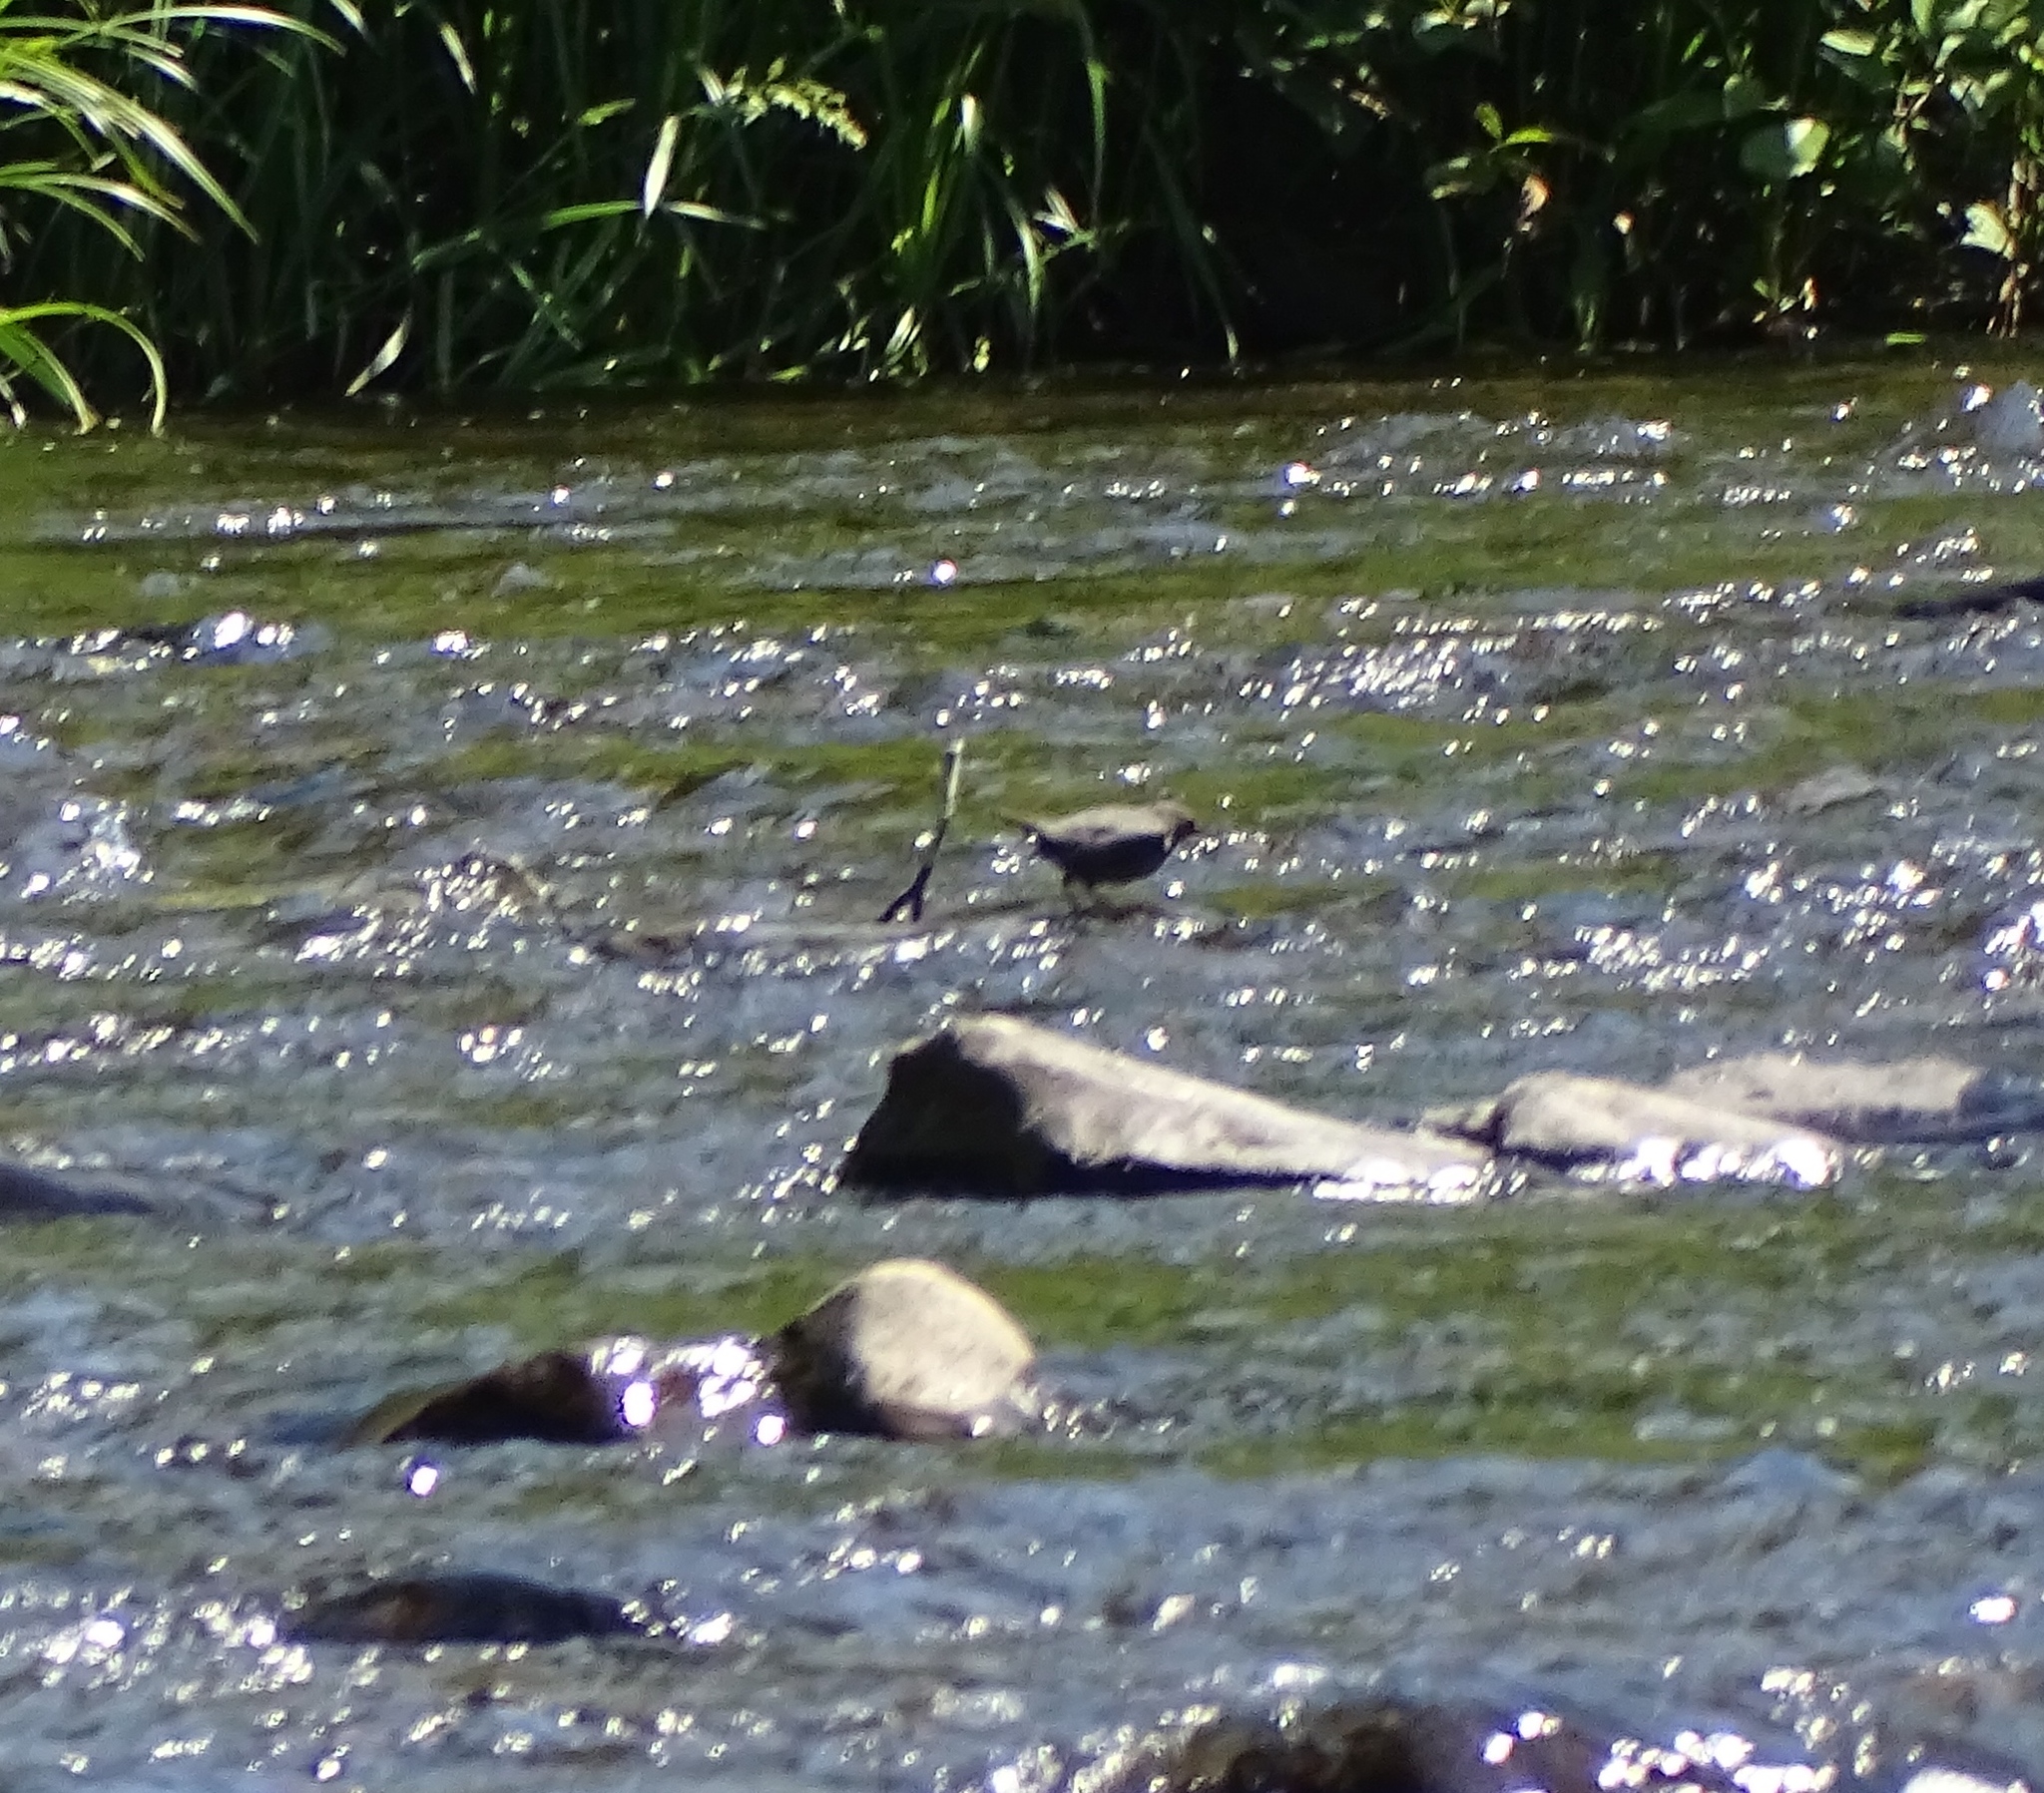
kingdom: Animalia
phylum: Chordata
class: Aves
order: Passeriformes
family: Cinclidae
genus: Cinclus
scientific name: Cinclus mexicanus
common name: American dipper
